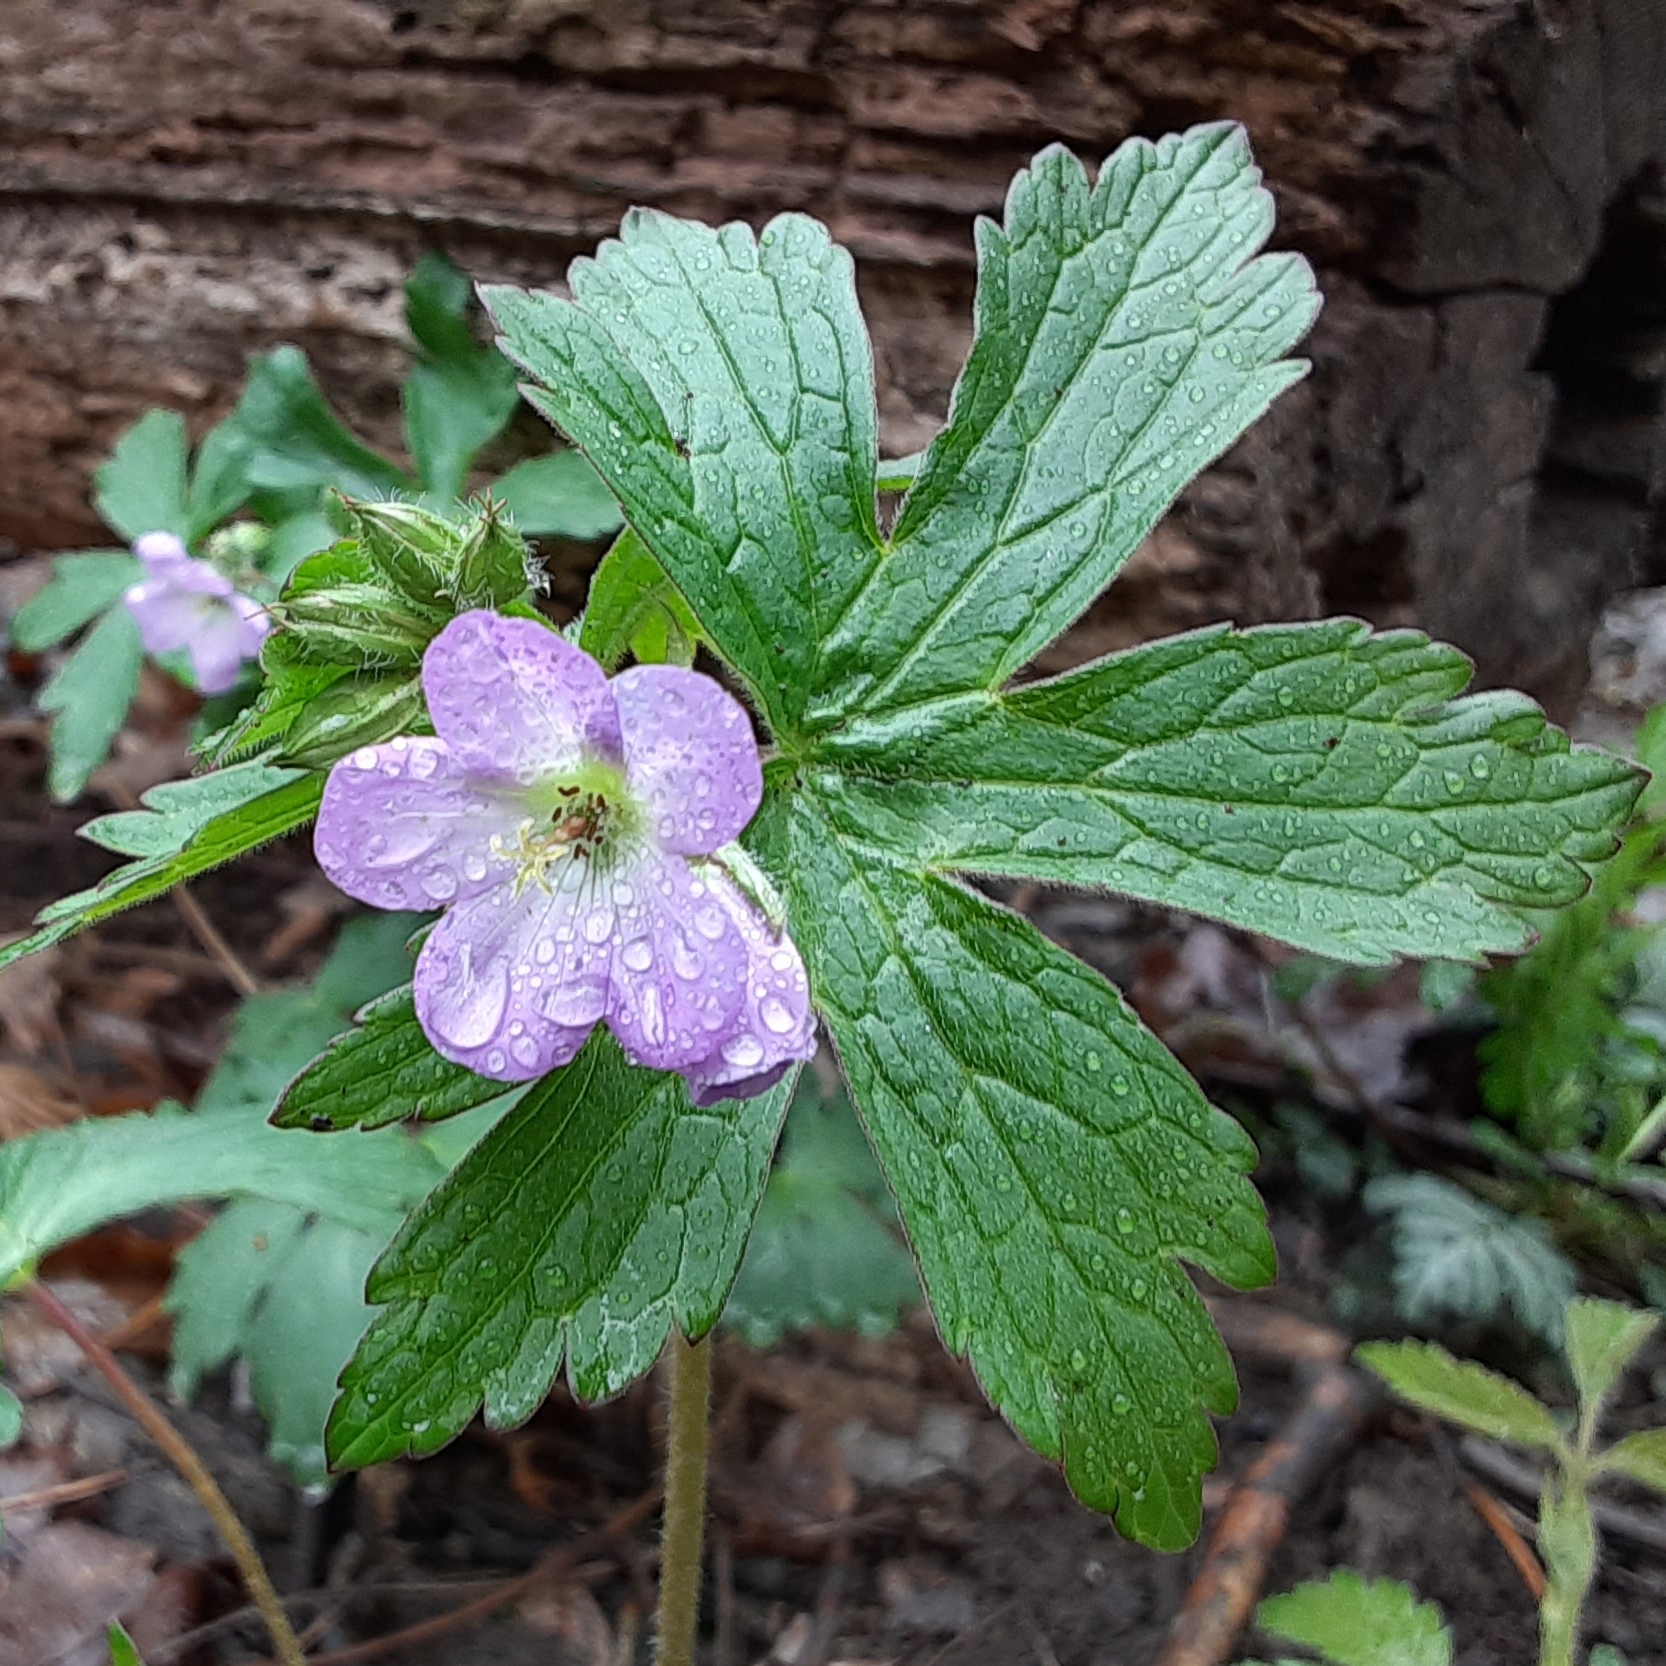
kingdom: Plantae
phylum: Tracheophyta
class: Magnoliopsida
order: Geraniales
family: Geraniaceae
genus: Geranium
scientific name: Geranium maculatum
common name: Spotted geranium
